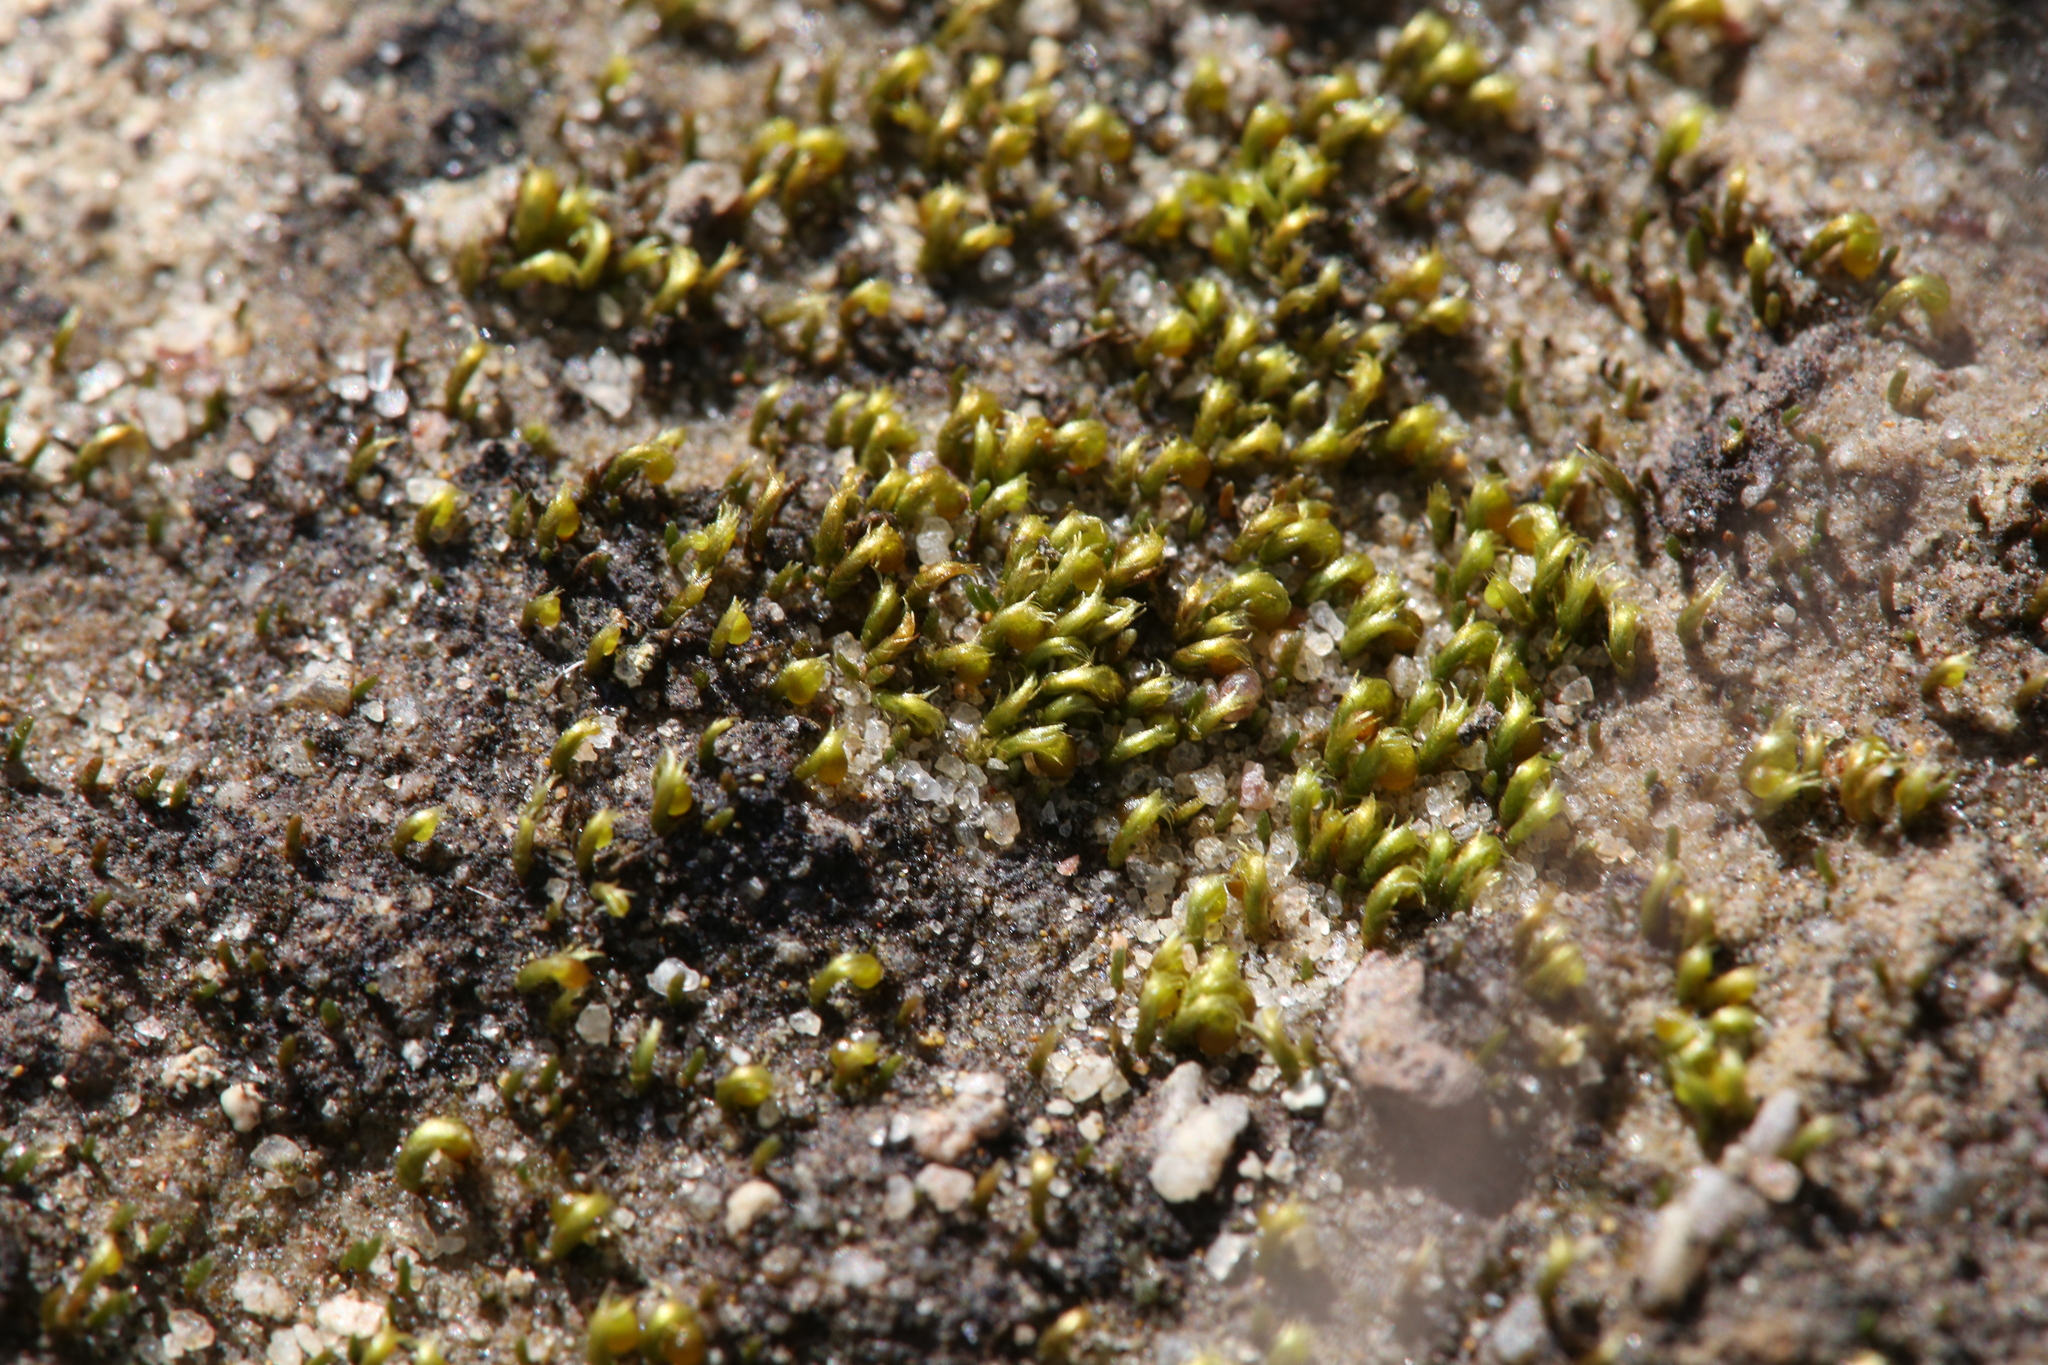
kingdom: Plantae
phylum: Bryophyta
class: Bryopsida
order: Dicranales
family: Dicranellaceae
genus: Eccremidium
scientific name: Eccremidium arcuatum
